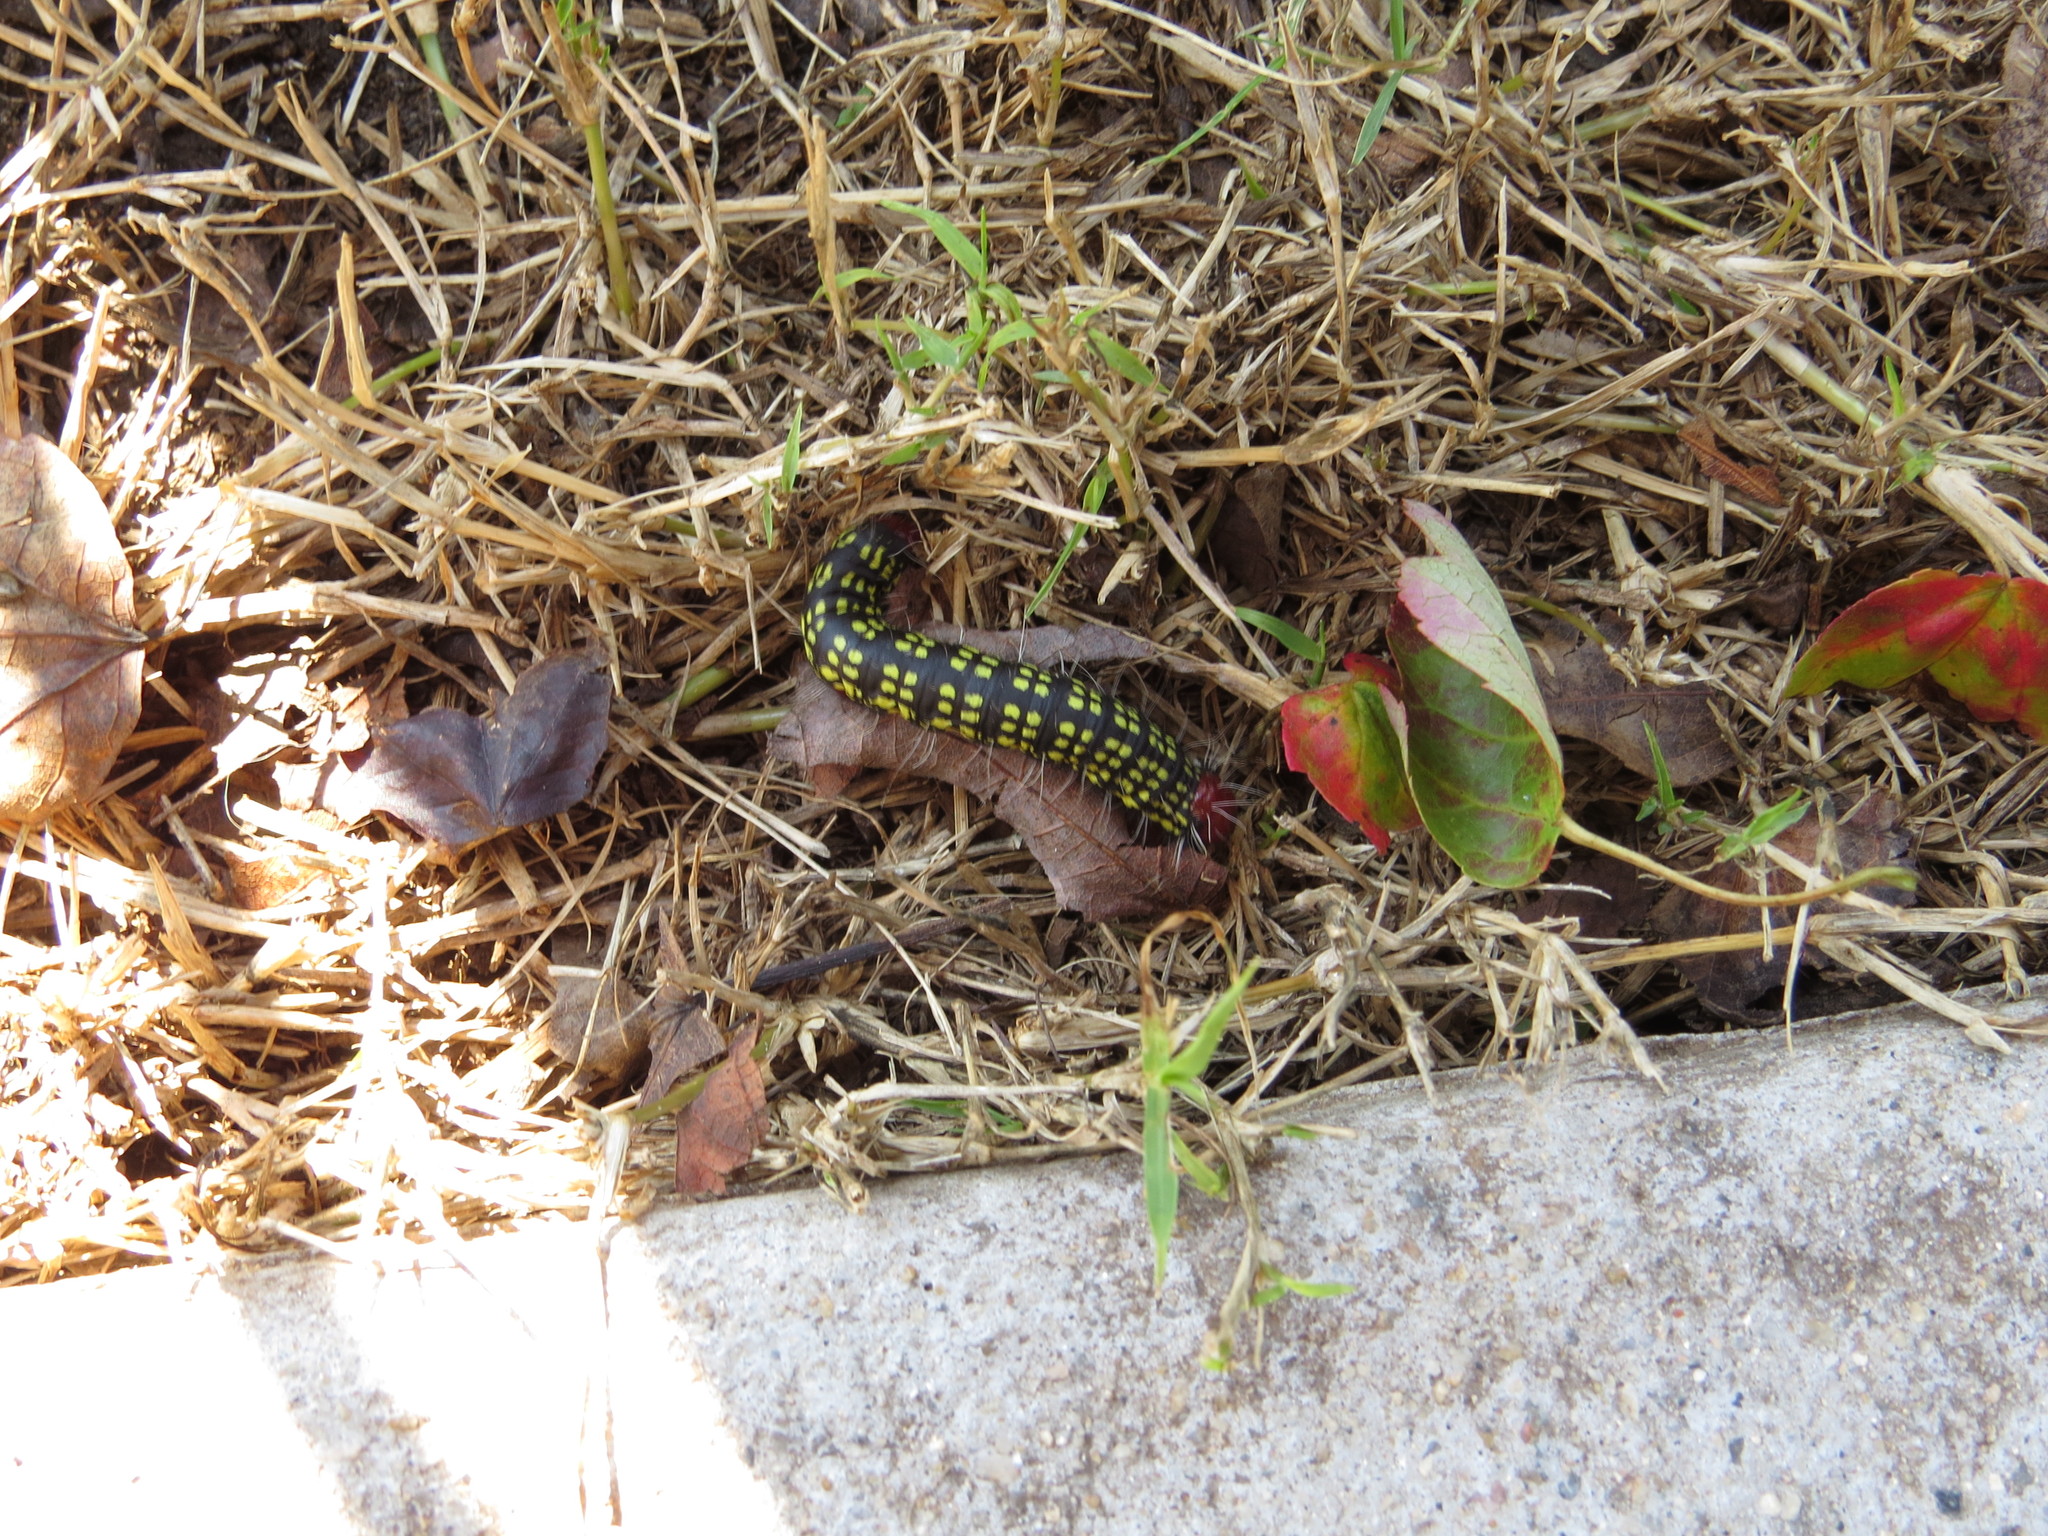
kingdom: Animalia
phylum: Arthropoda
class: Insecta
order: Lepidoptera
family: Notodontidae
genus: Datana
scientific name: Datana major
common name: Azalea caterpillar
